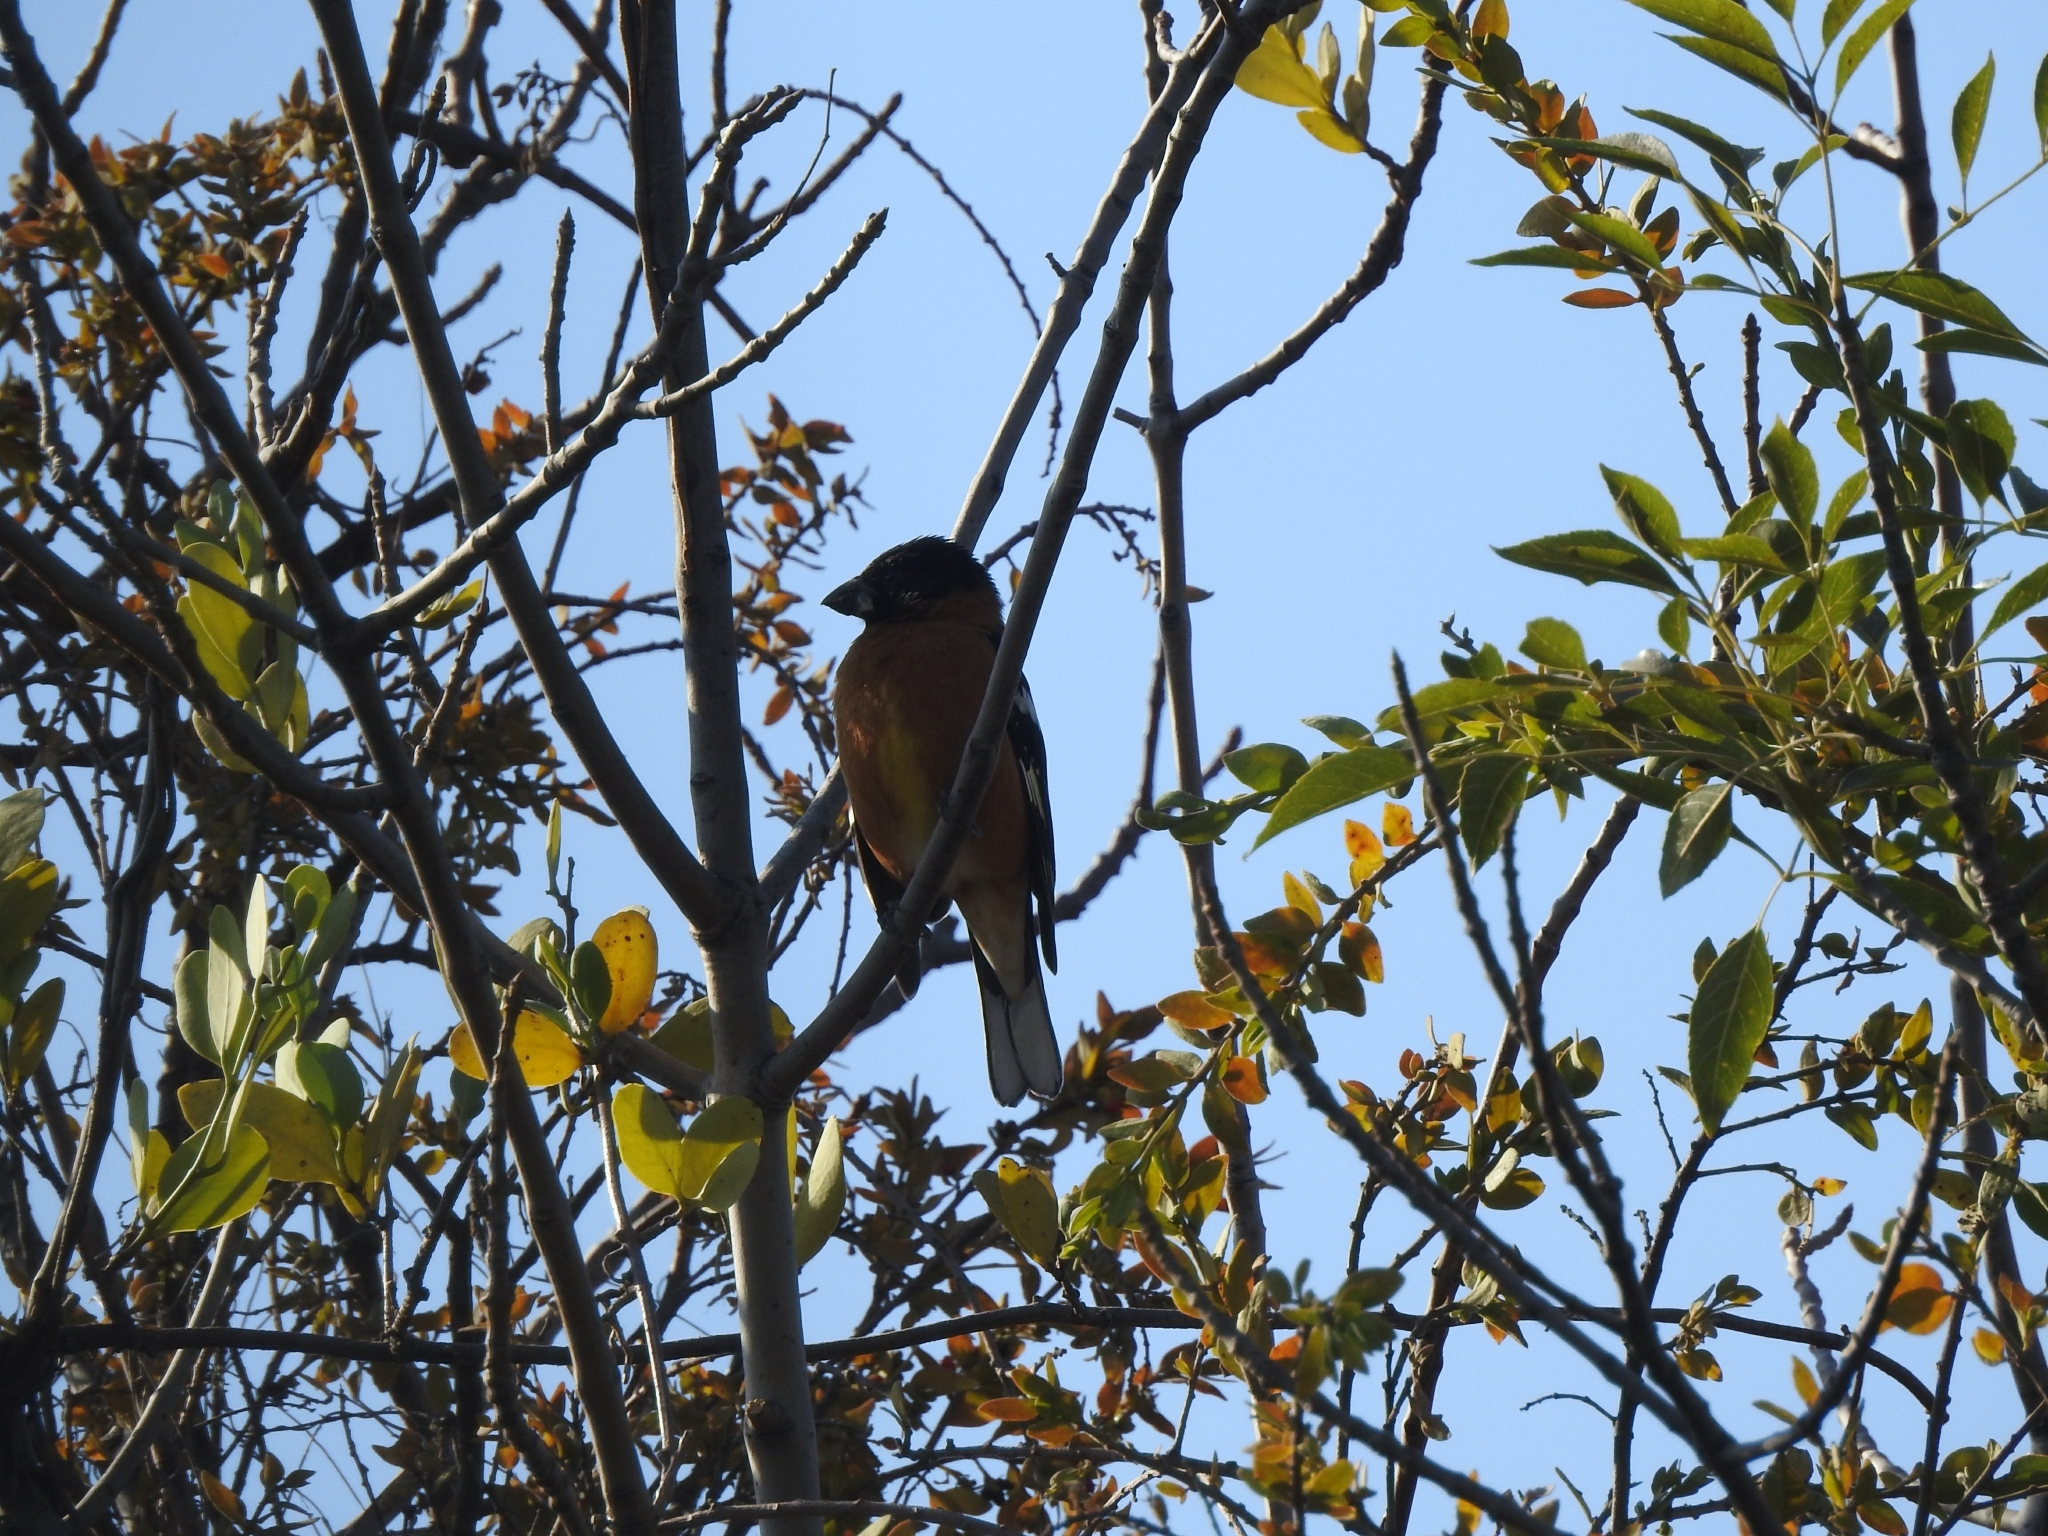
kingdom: Animalia
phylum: Chordata
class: Aves
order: Passeriformes
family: Cardinalidae
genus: Pheucticus
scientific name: Pheucticus melanocephalus
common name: Black-headed grosbeak
